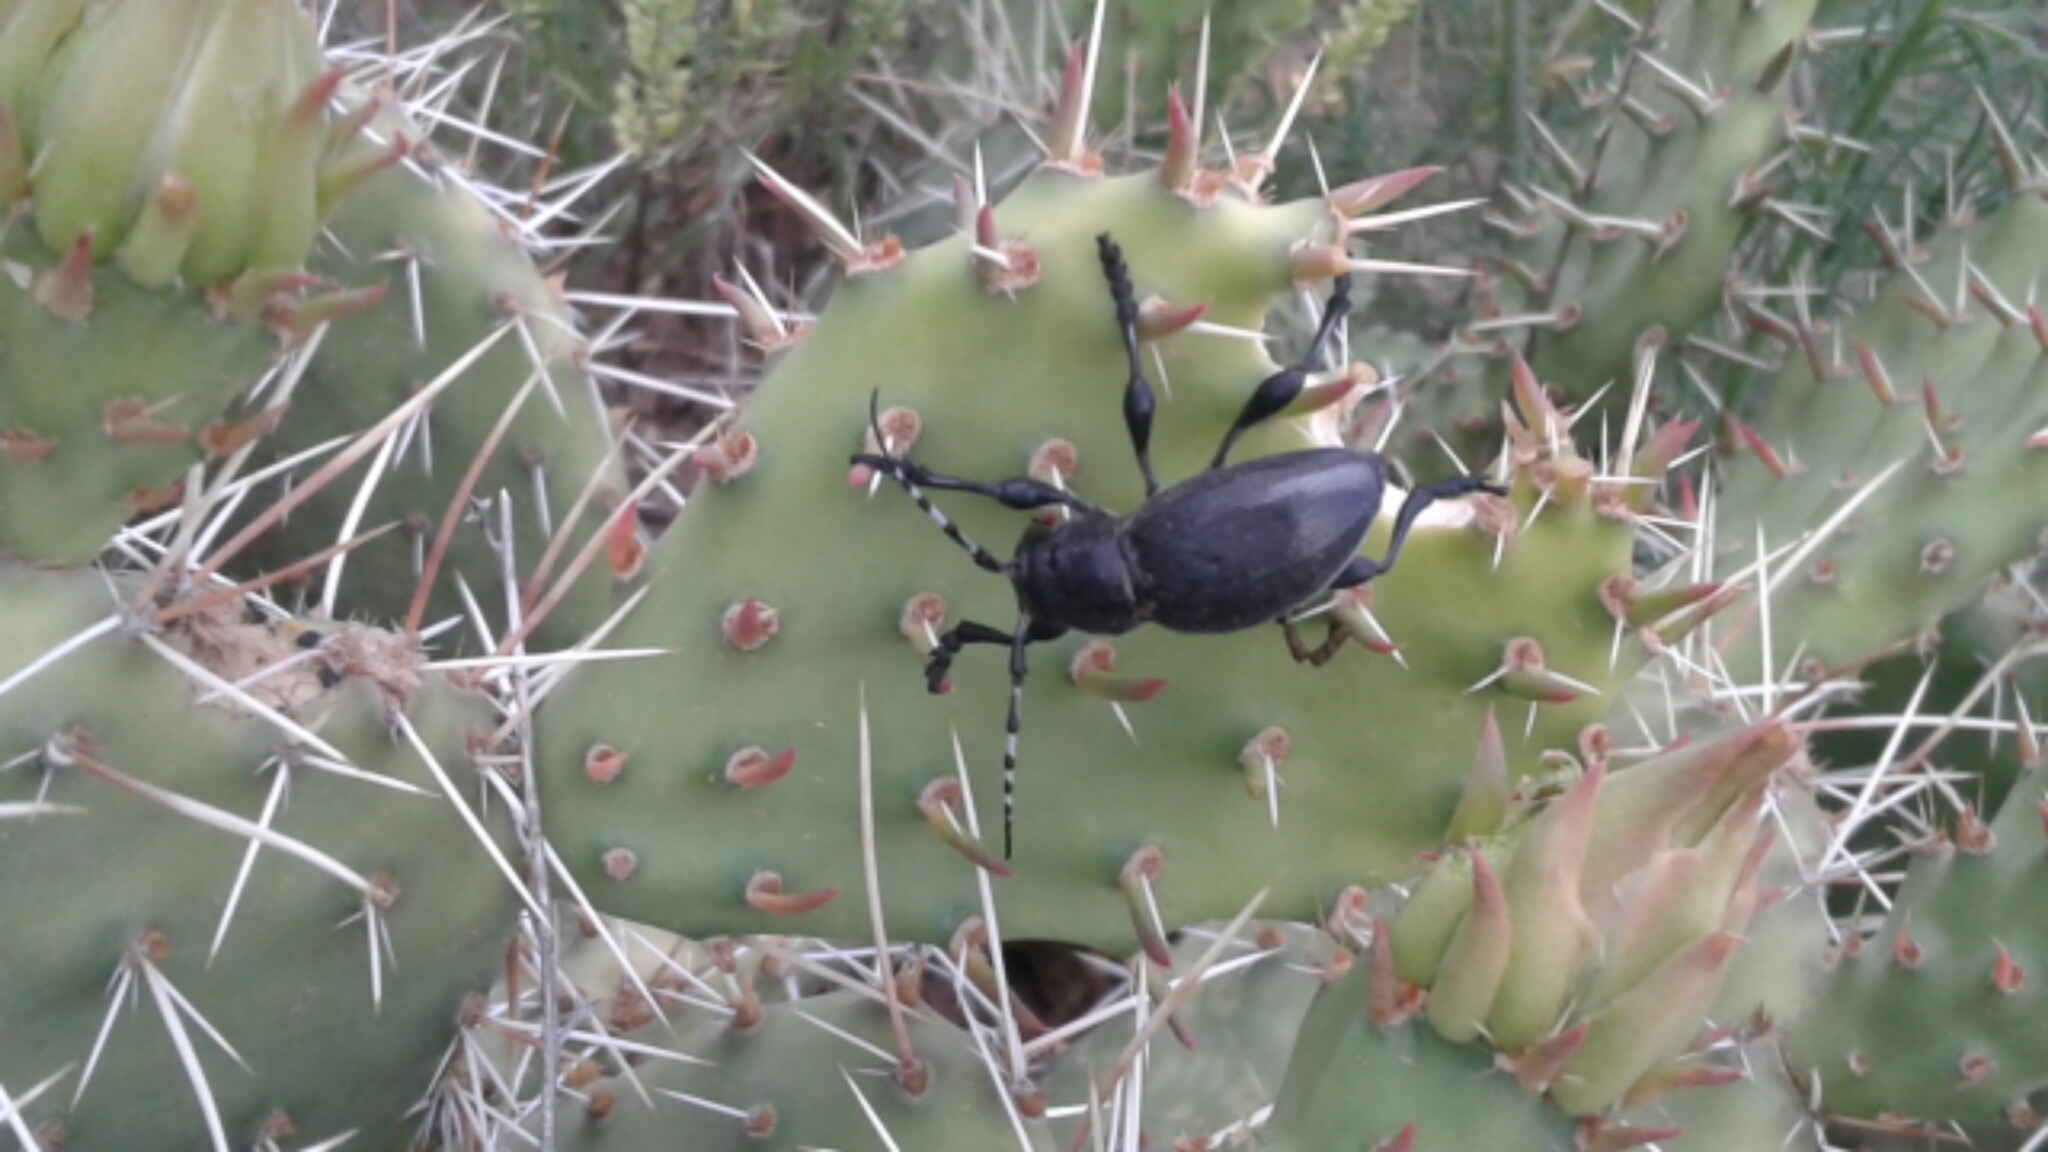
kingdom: Animalia
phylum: Arthropoda
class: Insecta
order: Coleoptera
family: Cerambycidae
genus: Moneilema
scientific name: Moneilema
